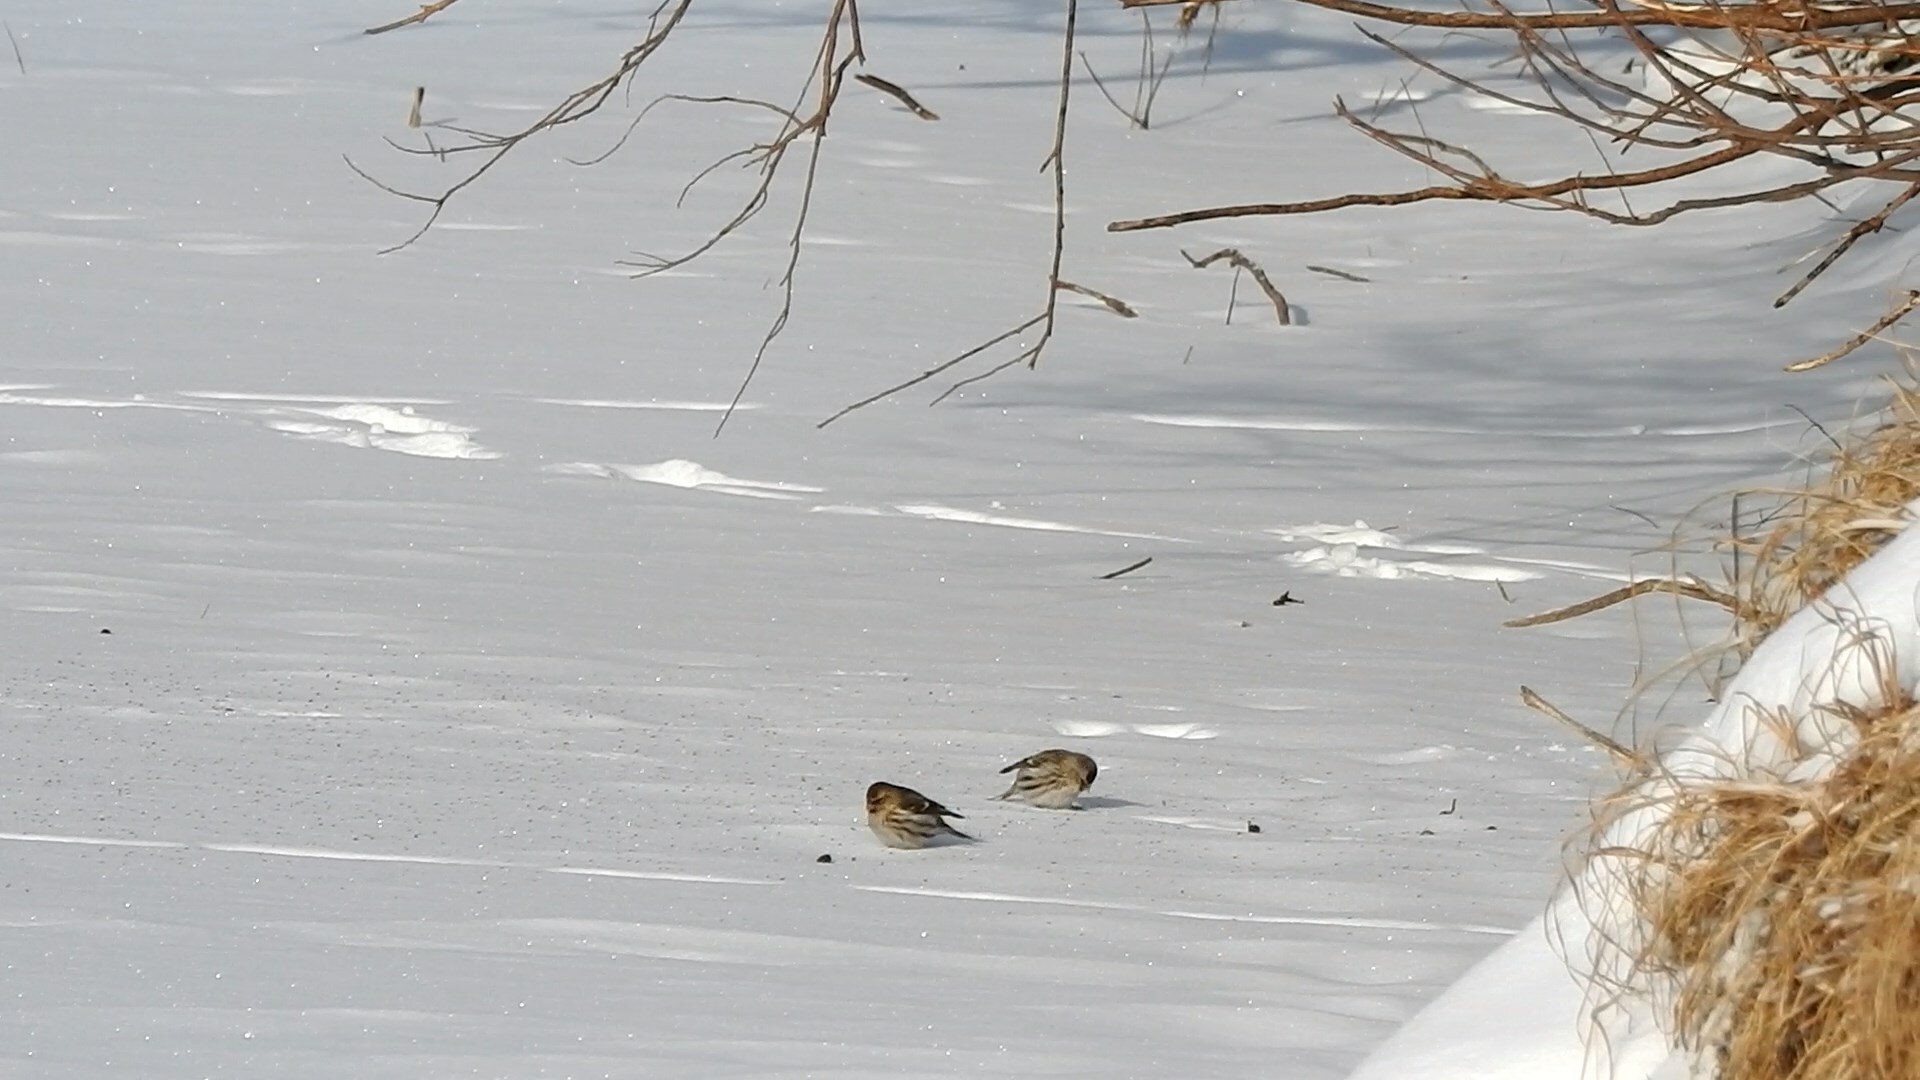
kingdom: Animalia
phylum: Chordata
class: Aves
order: Passeriformes
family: Fringillidae
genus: Acanthis
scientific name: Acanthis flammea
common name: Common redpoll
